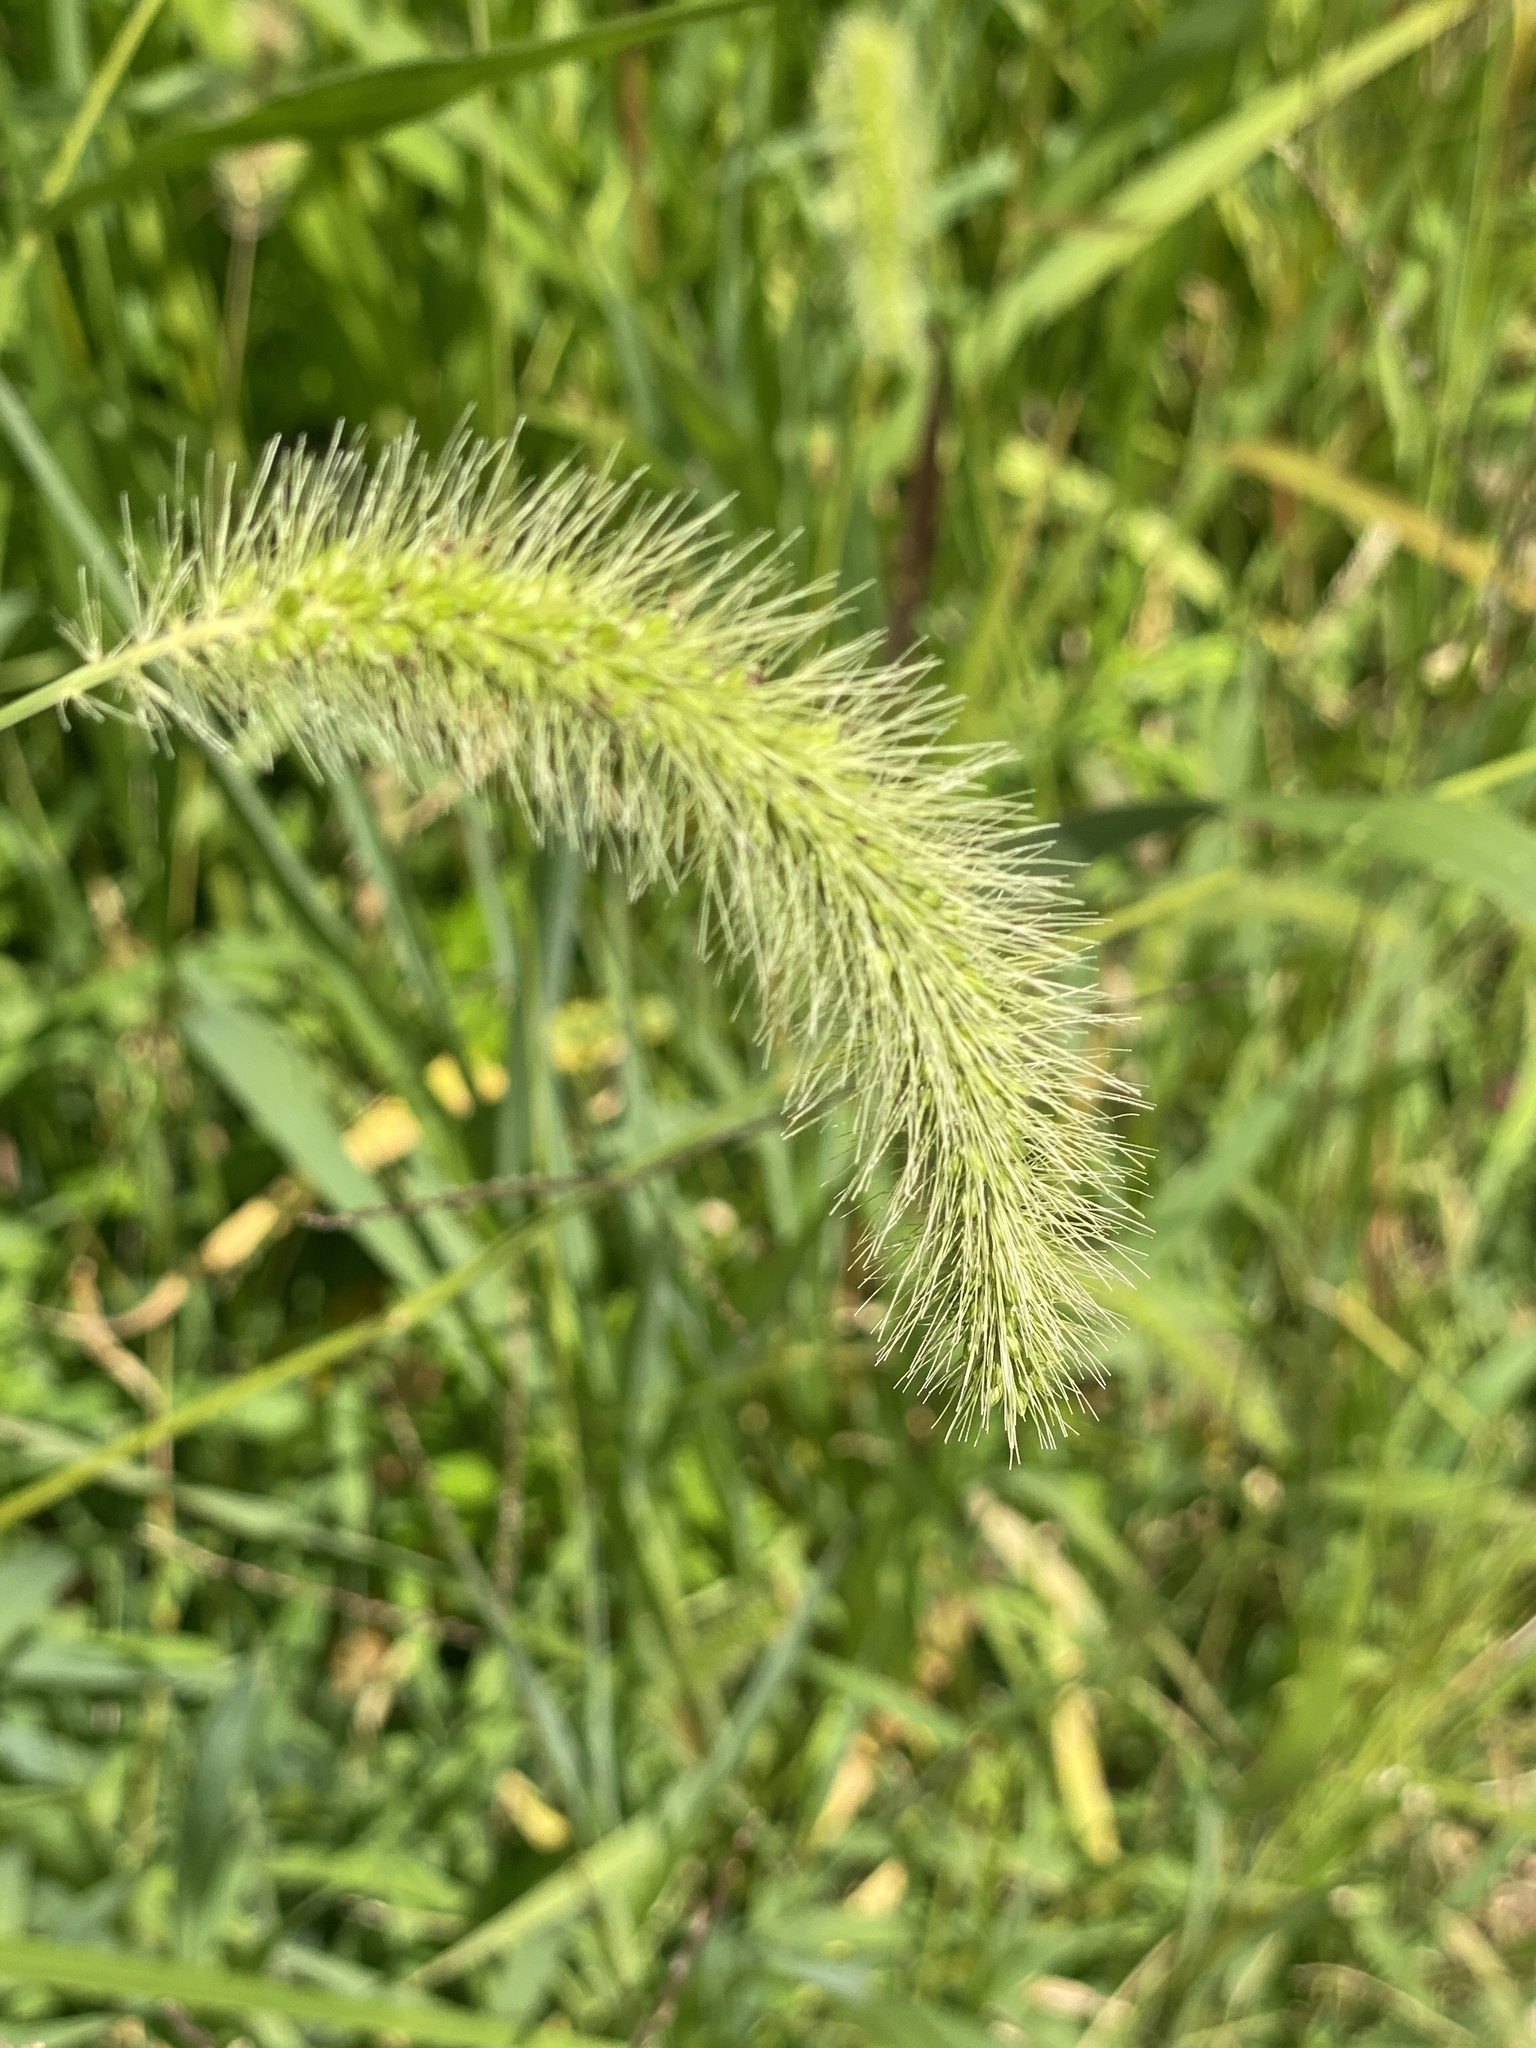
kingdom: Plantae
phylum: Tracheophyta
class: Liliopsida
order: Poales
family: Poaceae
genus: Setaria
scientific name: Setaria faberi
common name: Nodding bristle-grass
